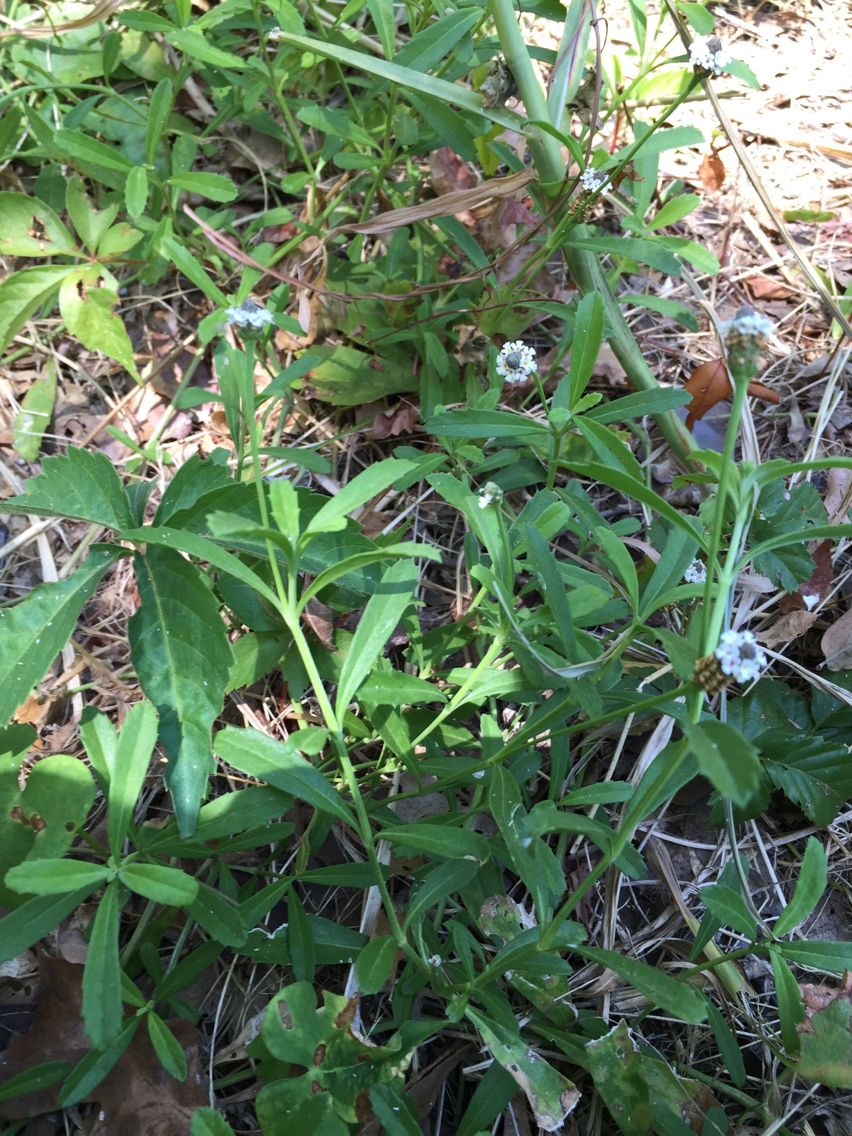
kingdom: Plantae
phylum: Tracheophyta
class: Magnoliopsida
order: Lamiales
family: Verbenaceae
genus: Phyla
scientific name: Phyla nodiflora
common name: Frogfruit
